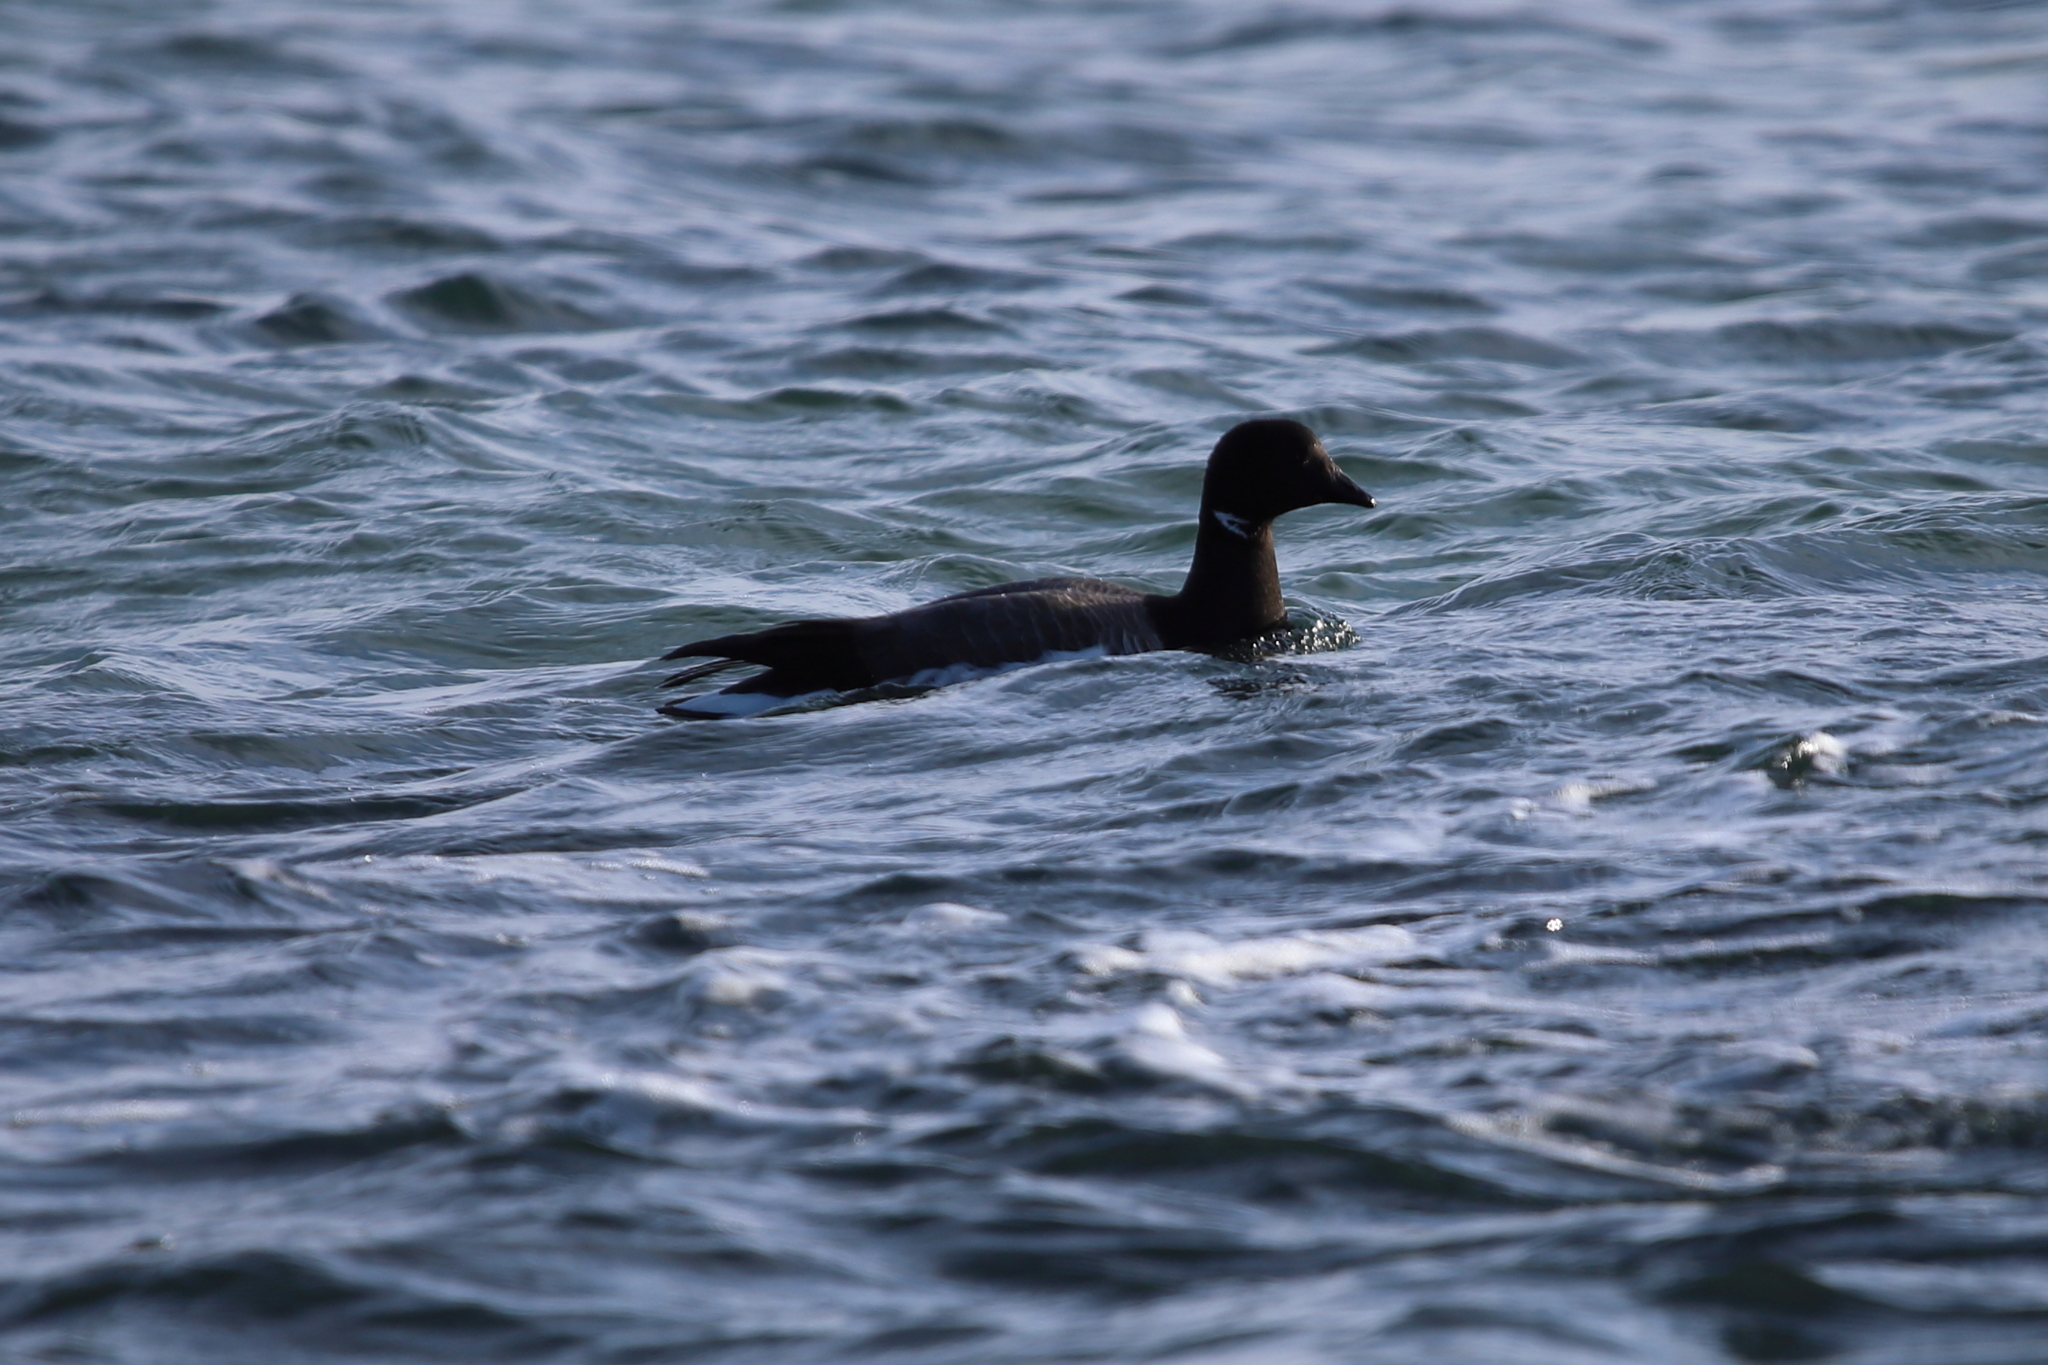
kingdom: Animalia
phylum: Chordata
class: Aves
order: Anseriformes
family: Anatidae
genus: Branta
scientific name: Branta bernicla
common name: Brant goose
